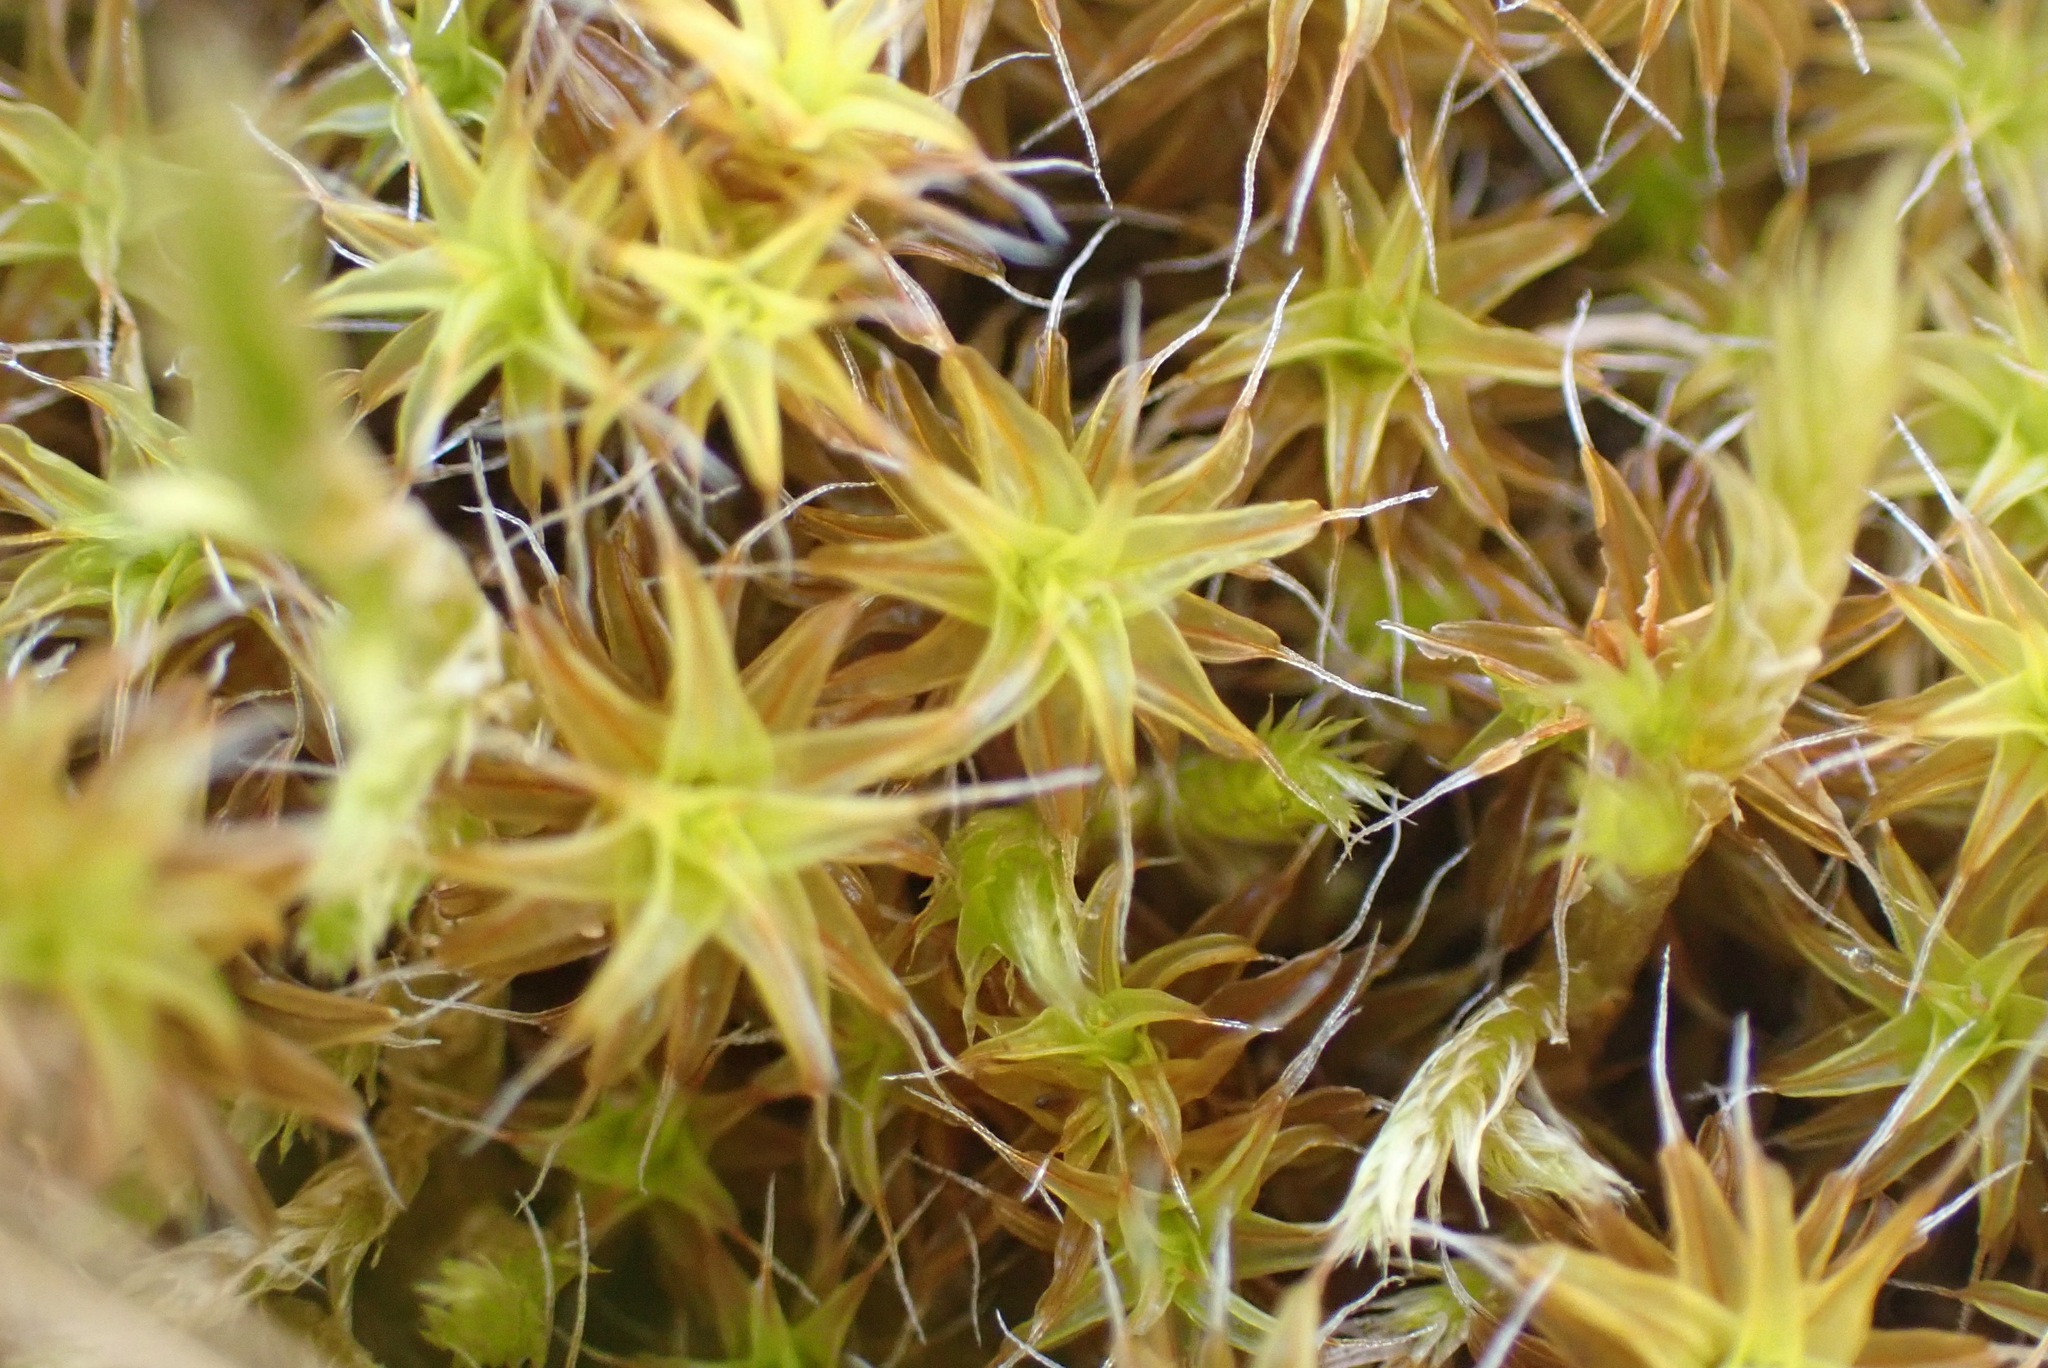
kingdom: Plantae
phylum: Bryophyta
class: Bryopsida
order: Pottiales
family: Pottiaceae
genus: Syntrichia
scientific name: Syntrichia ruralis
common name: Sidewalk screw moss
